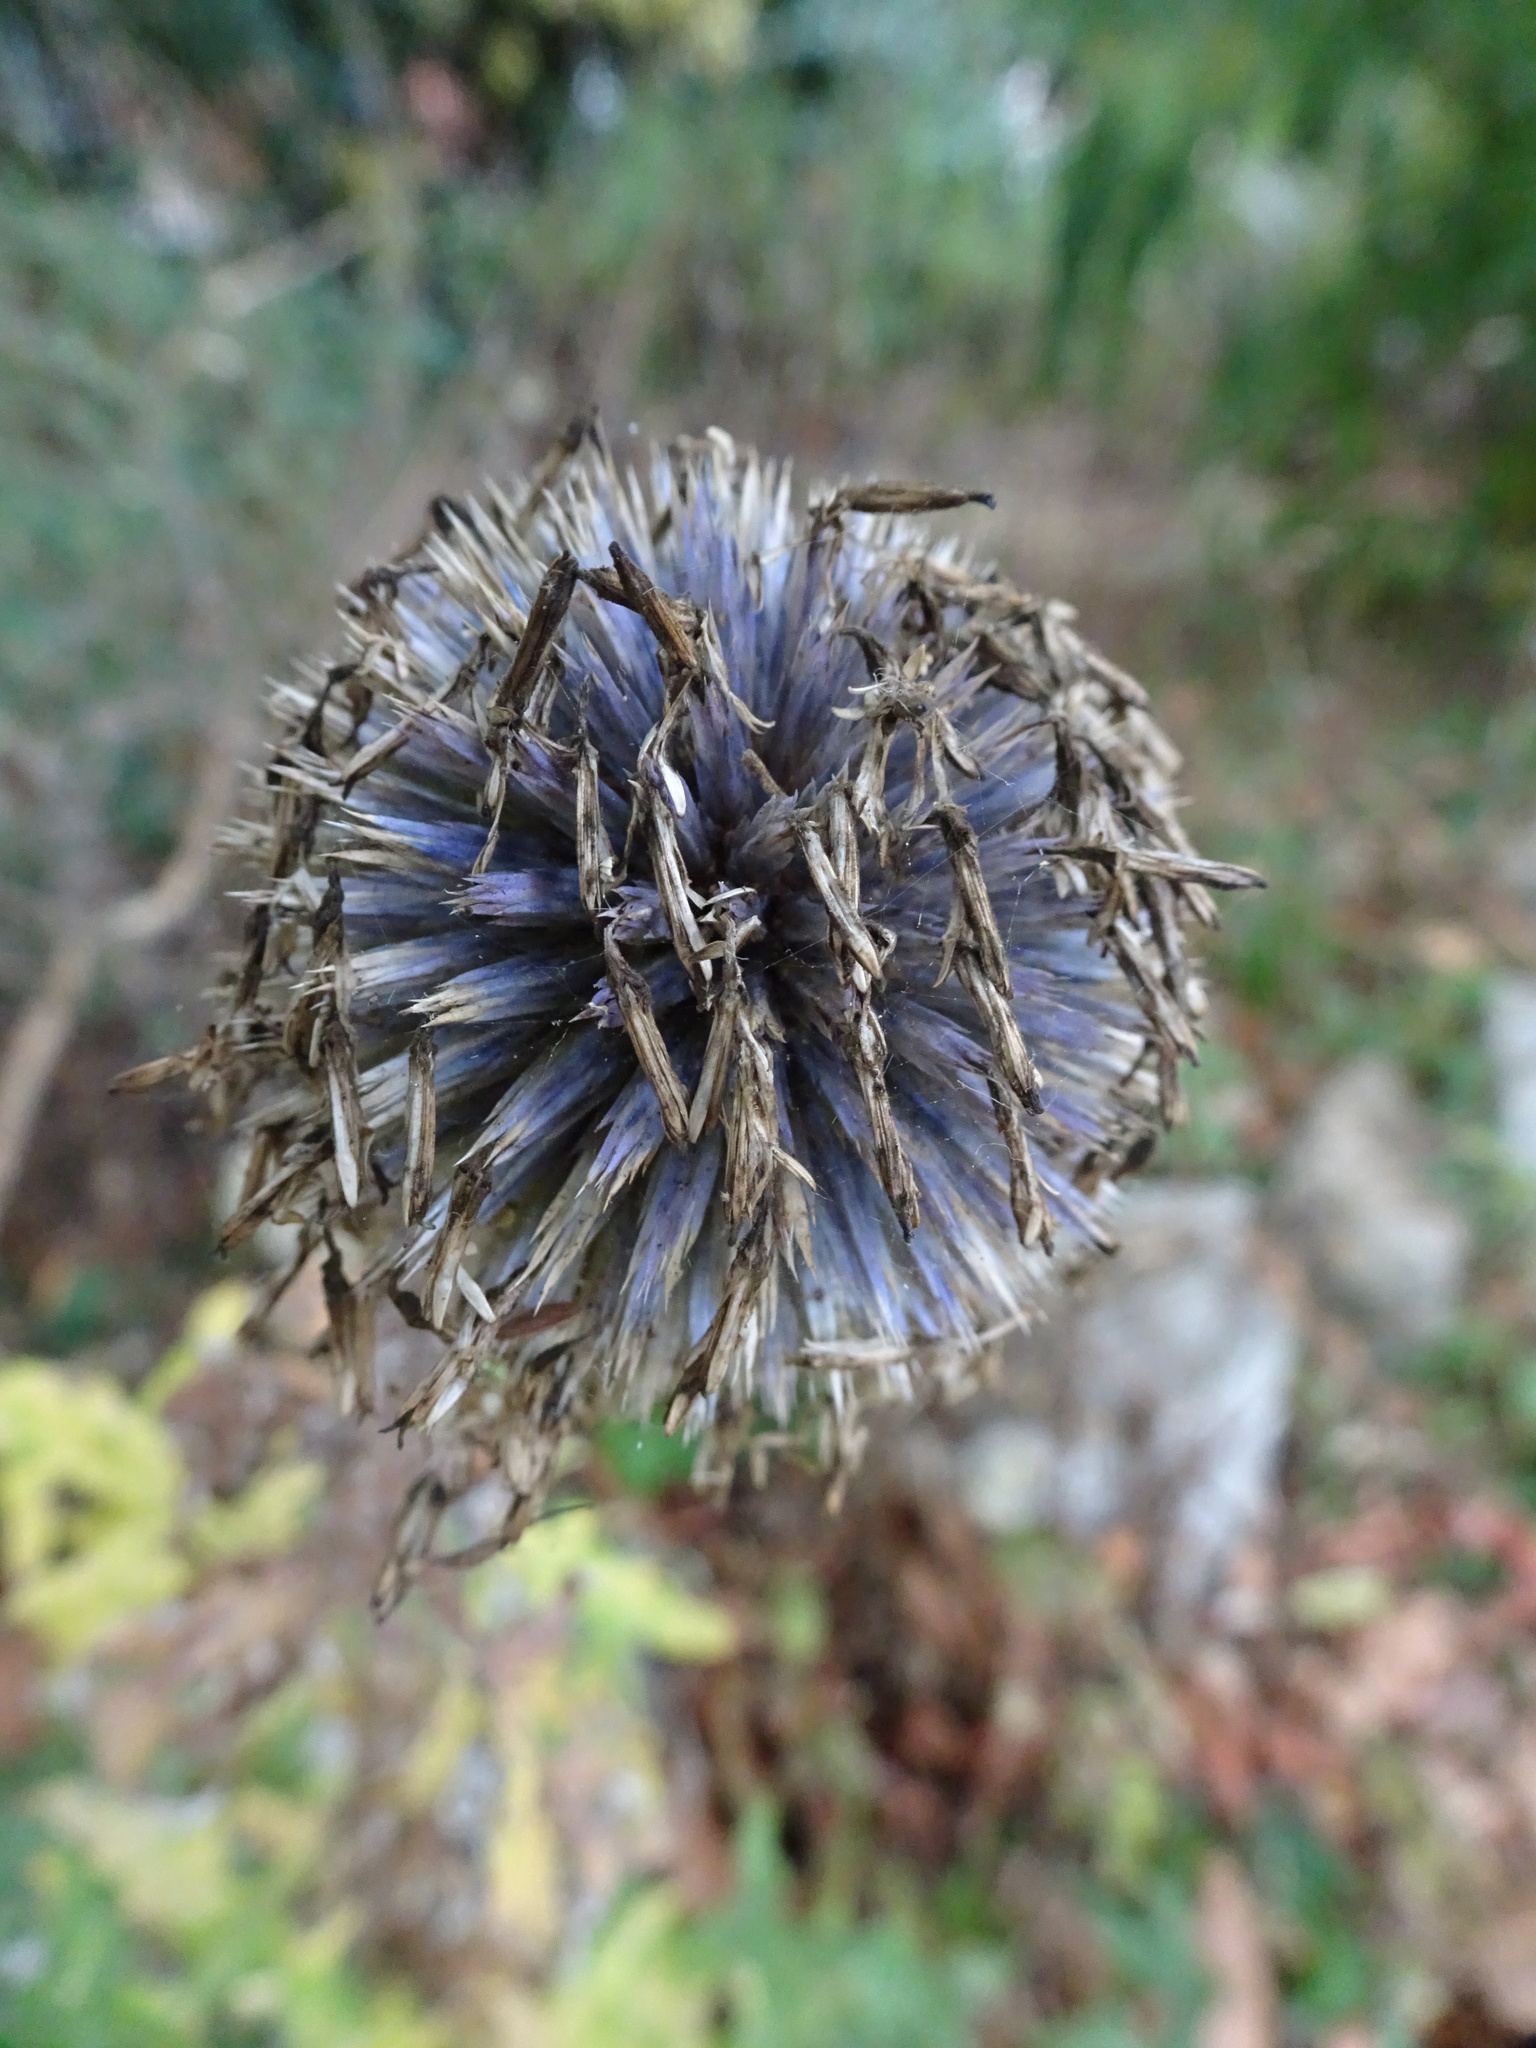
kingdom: Plantae
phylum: Tracheophyta
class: Magnoliopsida
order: Asterales
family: Asteraceae
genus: Echinops
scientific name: Echinops bannaticus
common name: Blue globe-thistle
